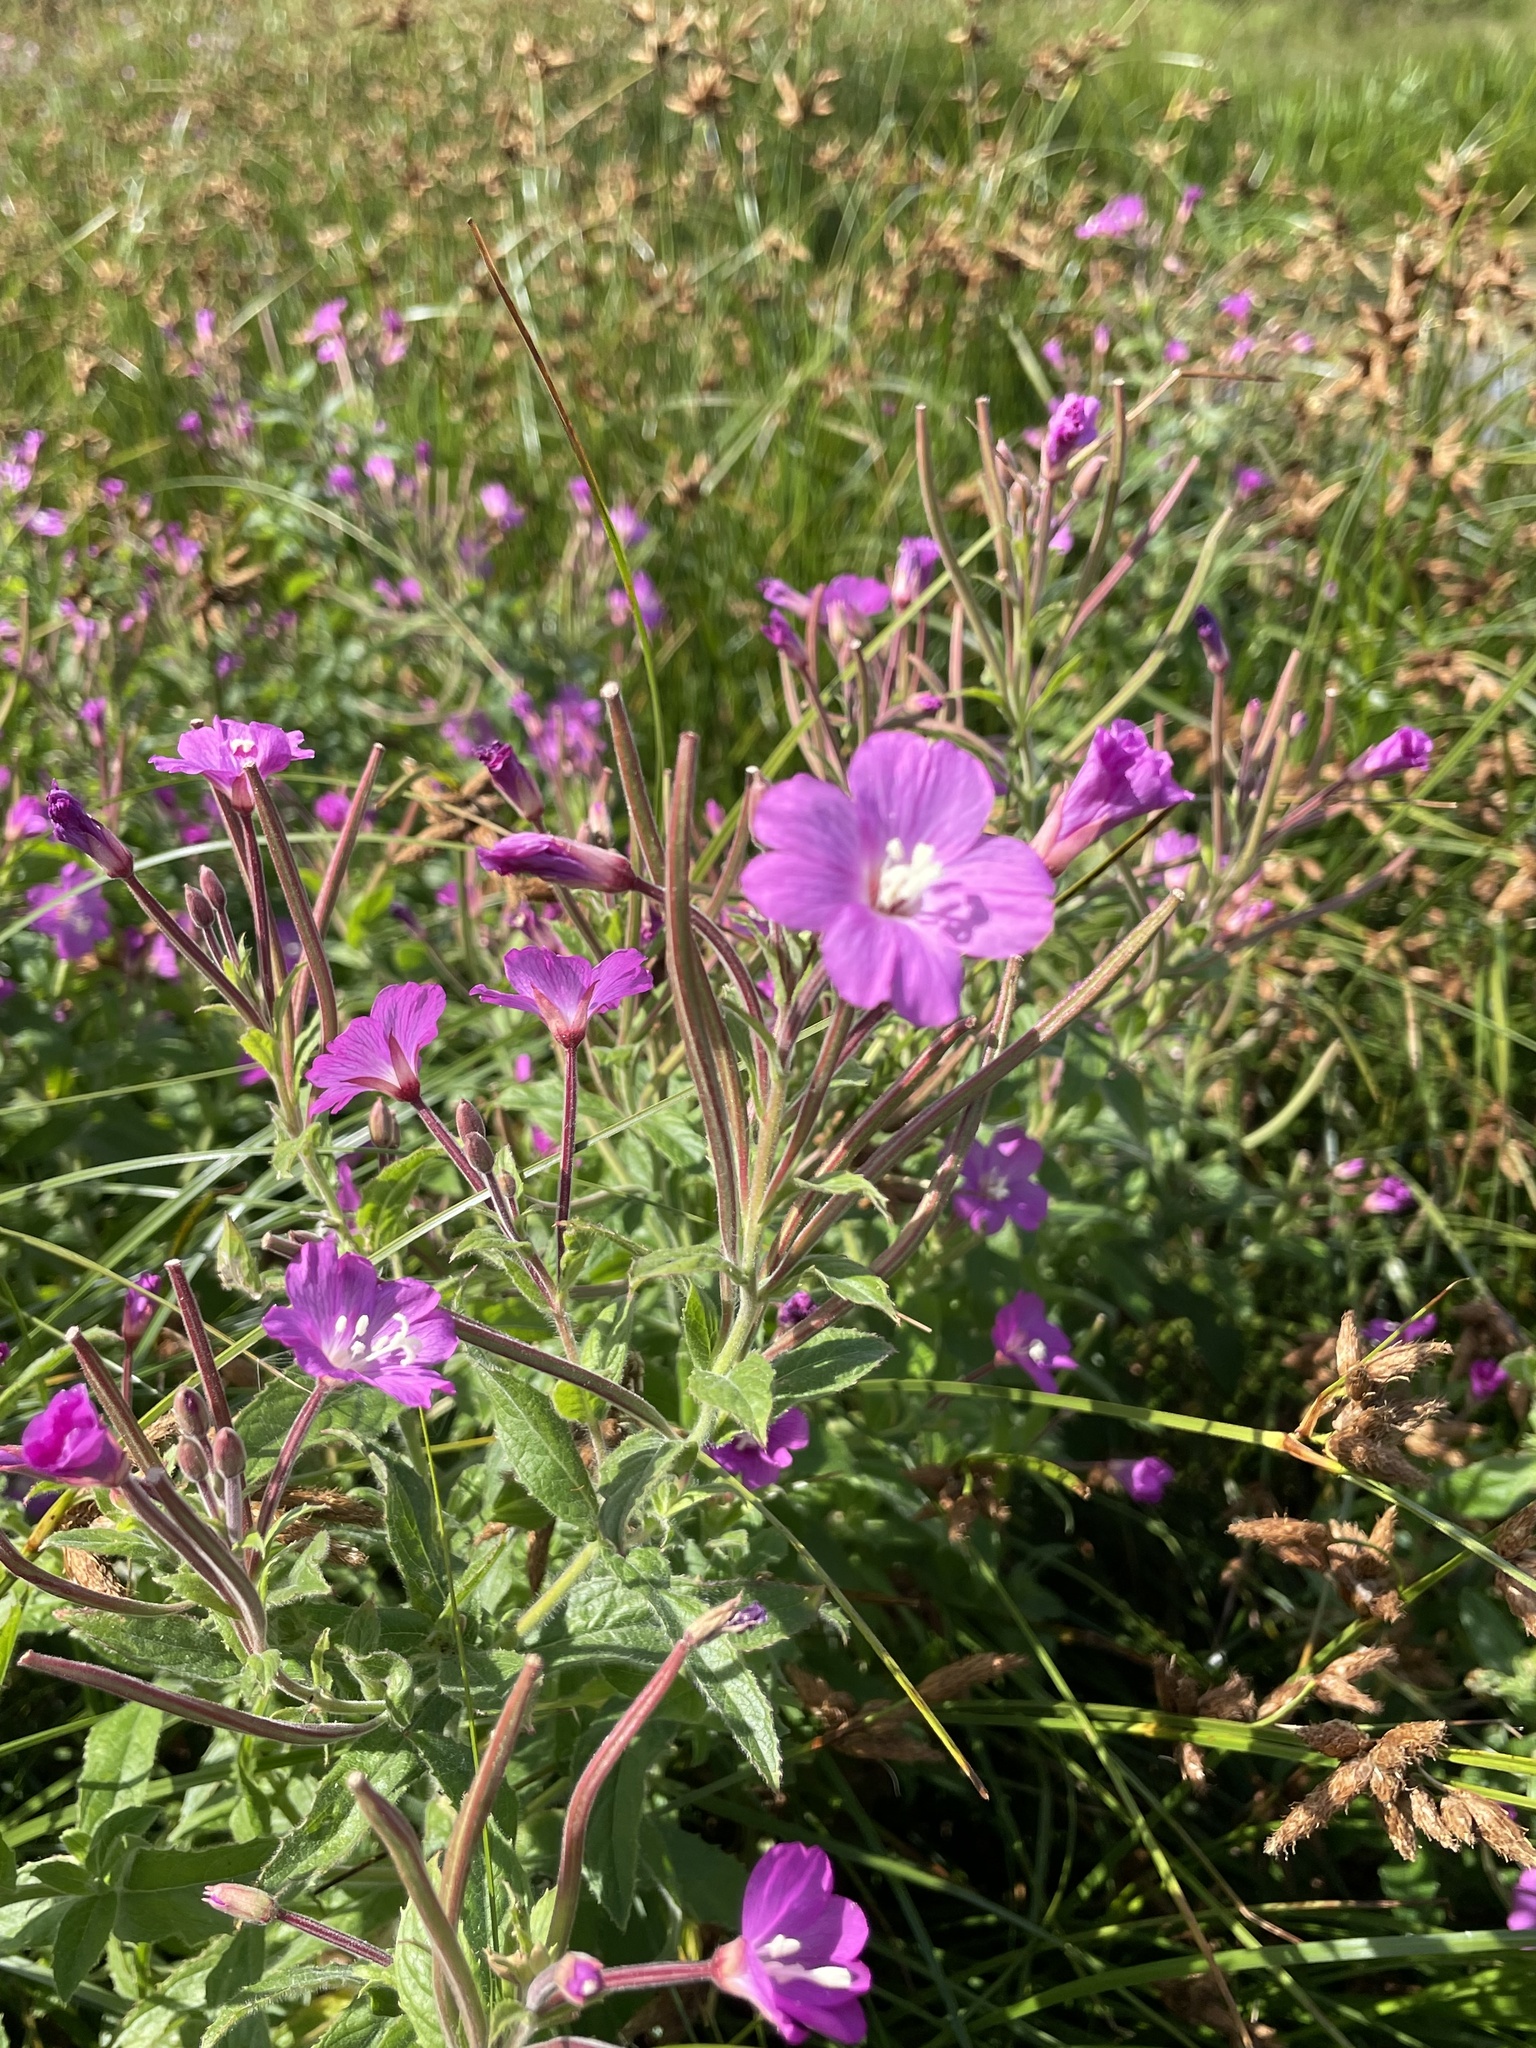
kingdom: Plantae
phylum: Tracheophyta
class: Magnoliopsida
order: Myrtales
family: Onagraceae
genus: Epilobium
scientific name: Epilobium hirsutum
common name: Great willowherb
